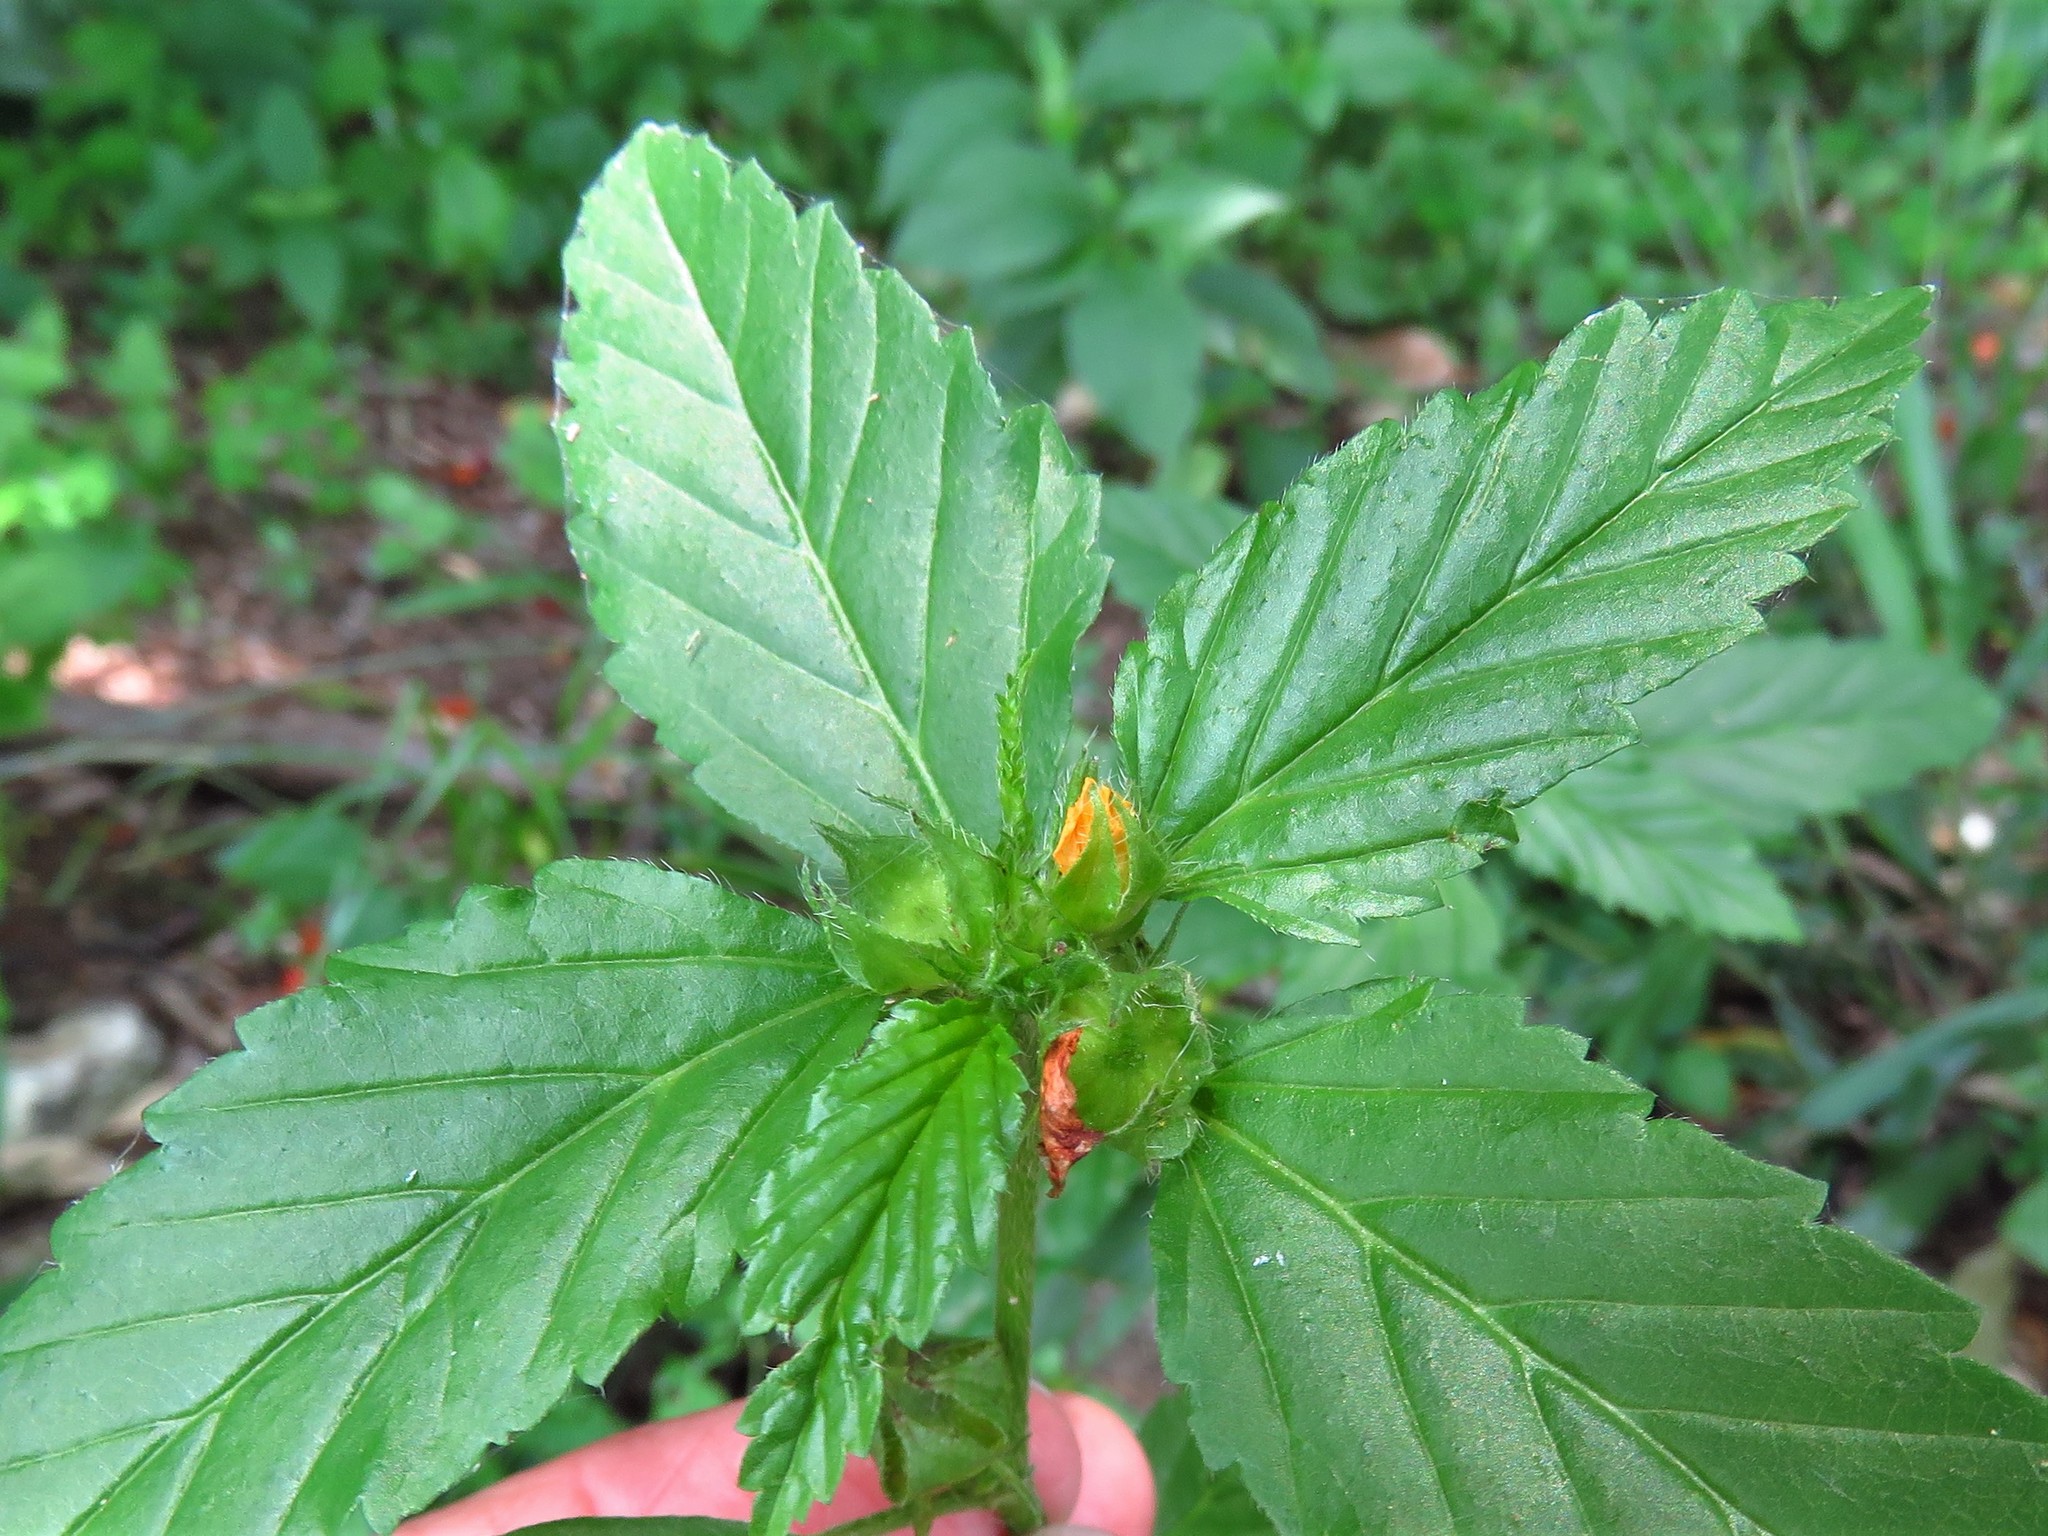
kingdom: Plantae
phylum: Tracheophyta
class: Magnoliopsida
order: Malvales
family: Malvaceae
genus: Malvastrum
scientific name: Malvastrum coromandelianum
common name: Threelobe false mallow
